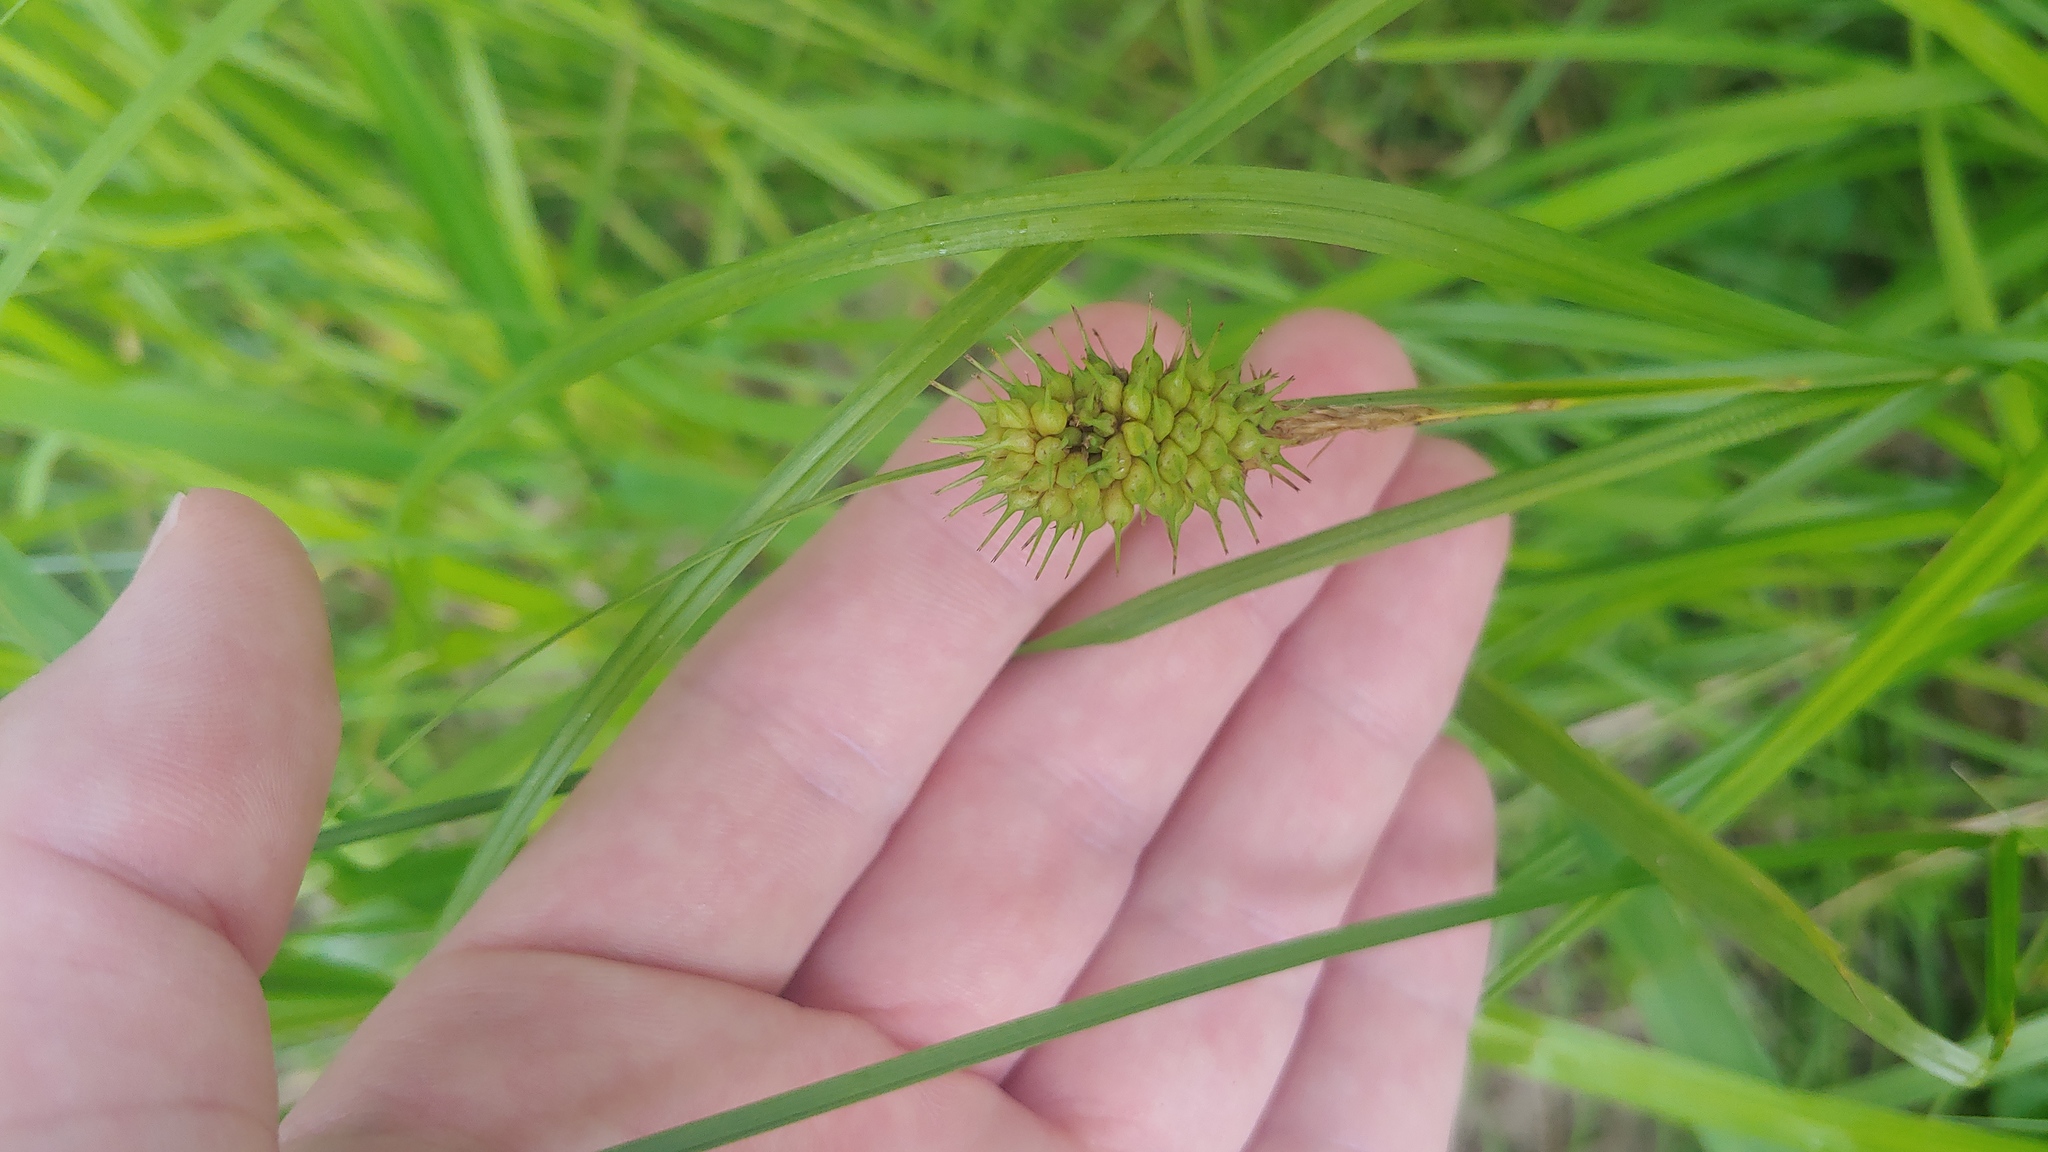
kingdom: Plantae
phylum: Tracheophyta
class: Liliopsida
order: Poales
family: Cyperaceae
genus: Carex
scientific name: Carex squarrosa
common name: Narrow-leaved cattail sedge
